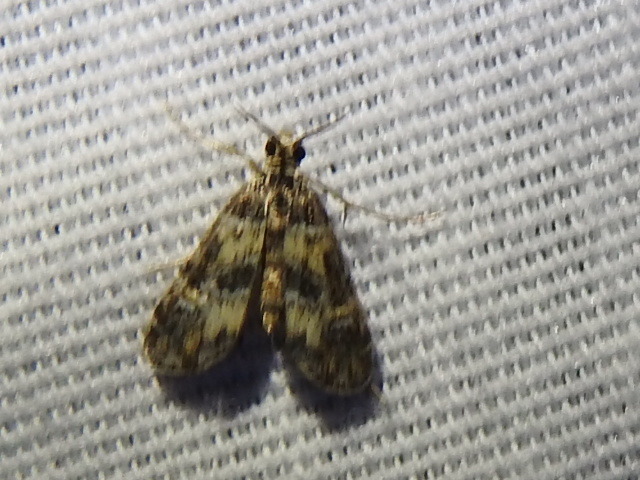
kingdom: Animalia
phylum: Arthropoda
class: Insecta
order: Lepidoptera
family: Crambidae
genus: Elophila
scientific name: Elophila obliteralis
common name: Waterlily leafcutter moth
